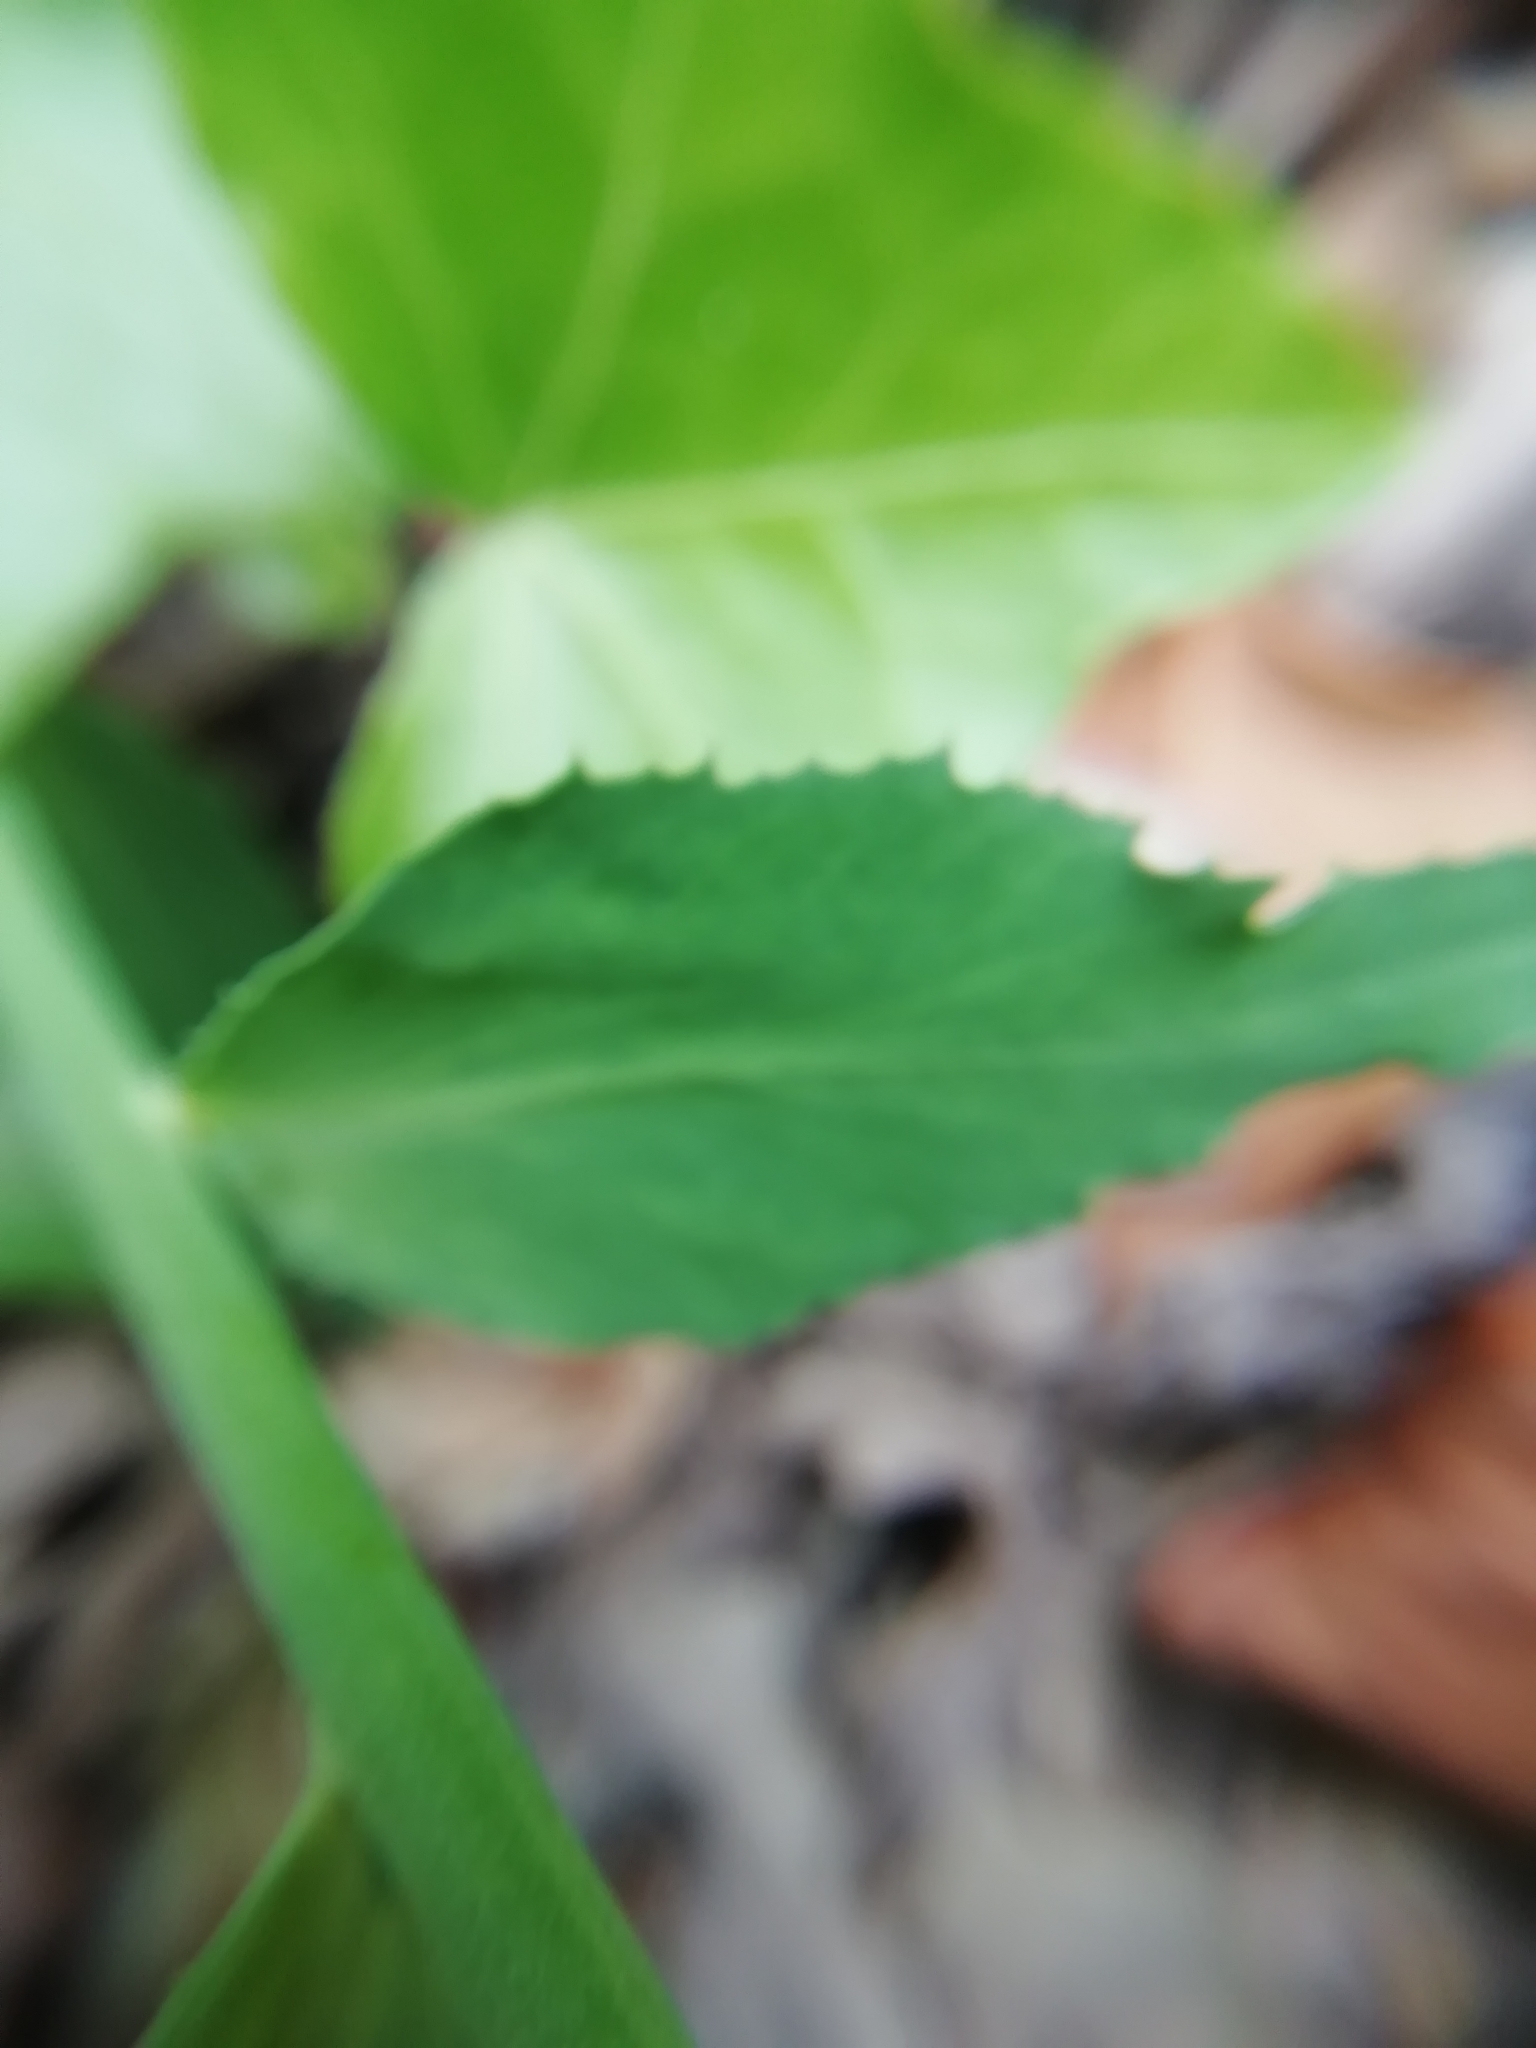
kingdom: Plantae
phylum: Tracheophyta
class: Magnoliopsida
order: Malpighiales
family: Euphorbiaceae
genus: Euphorbia
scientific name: Euphorbia serrata
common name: Serrate spurge
